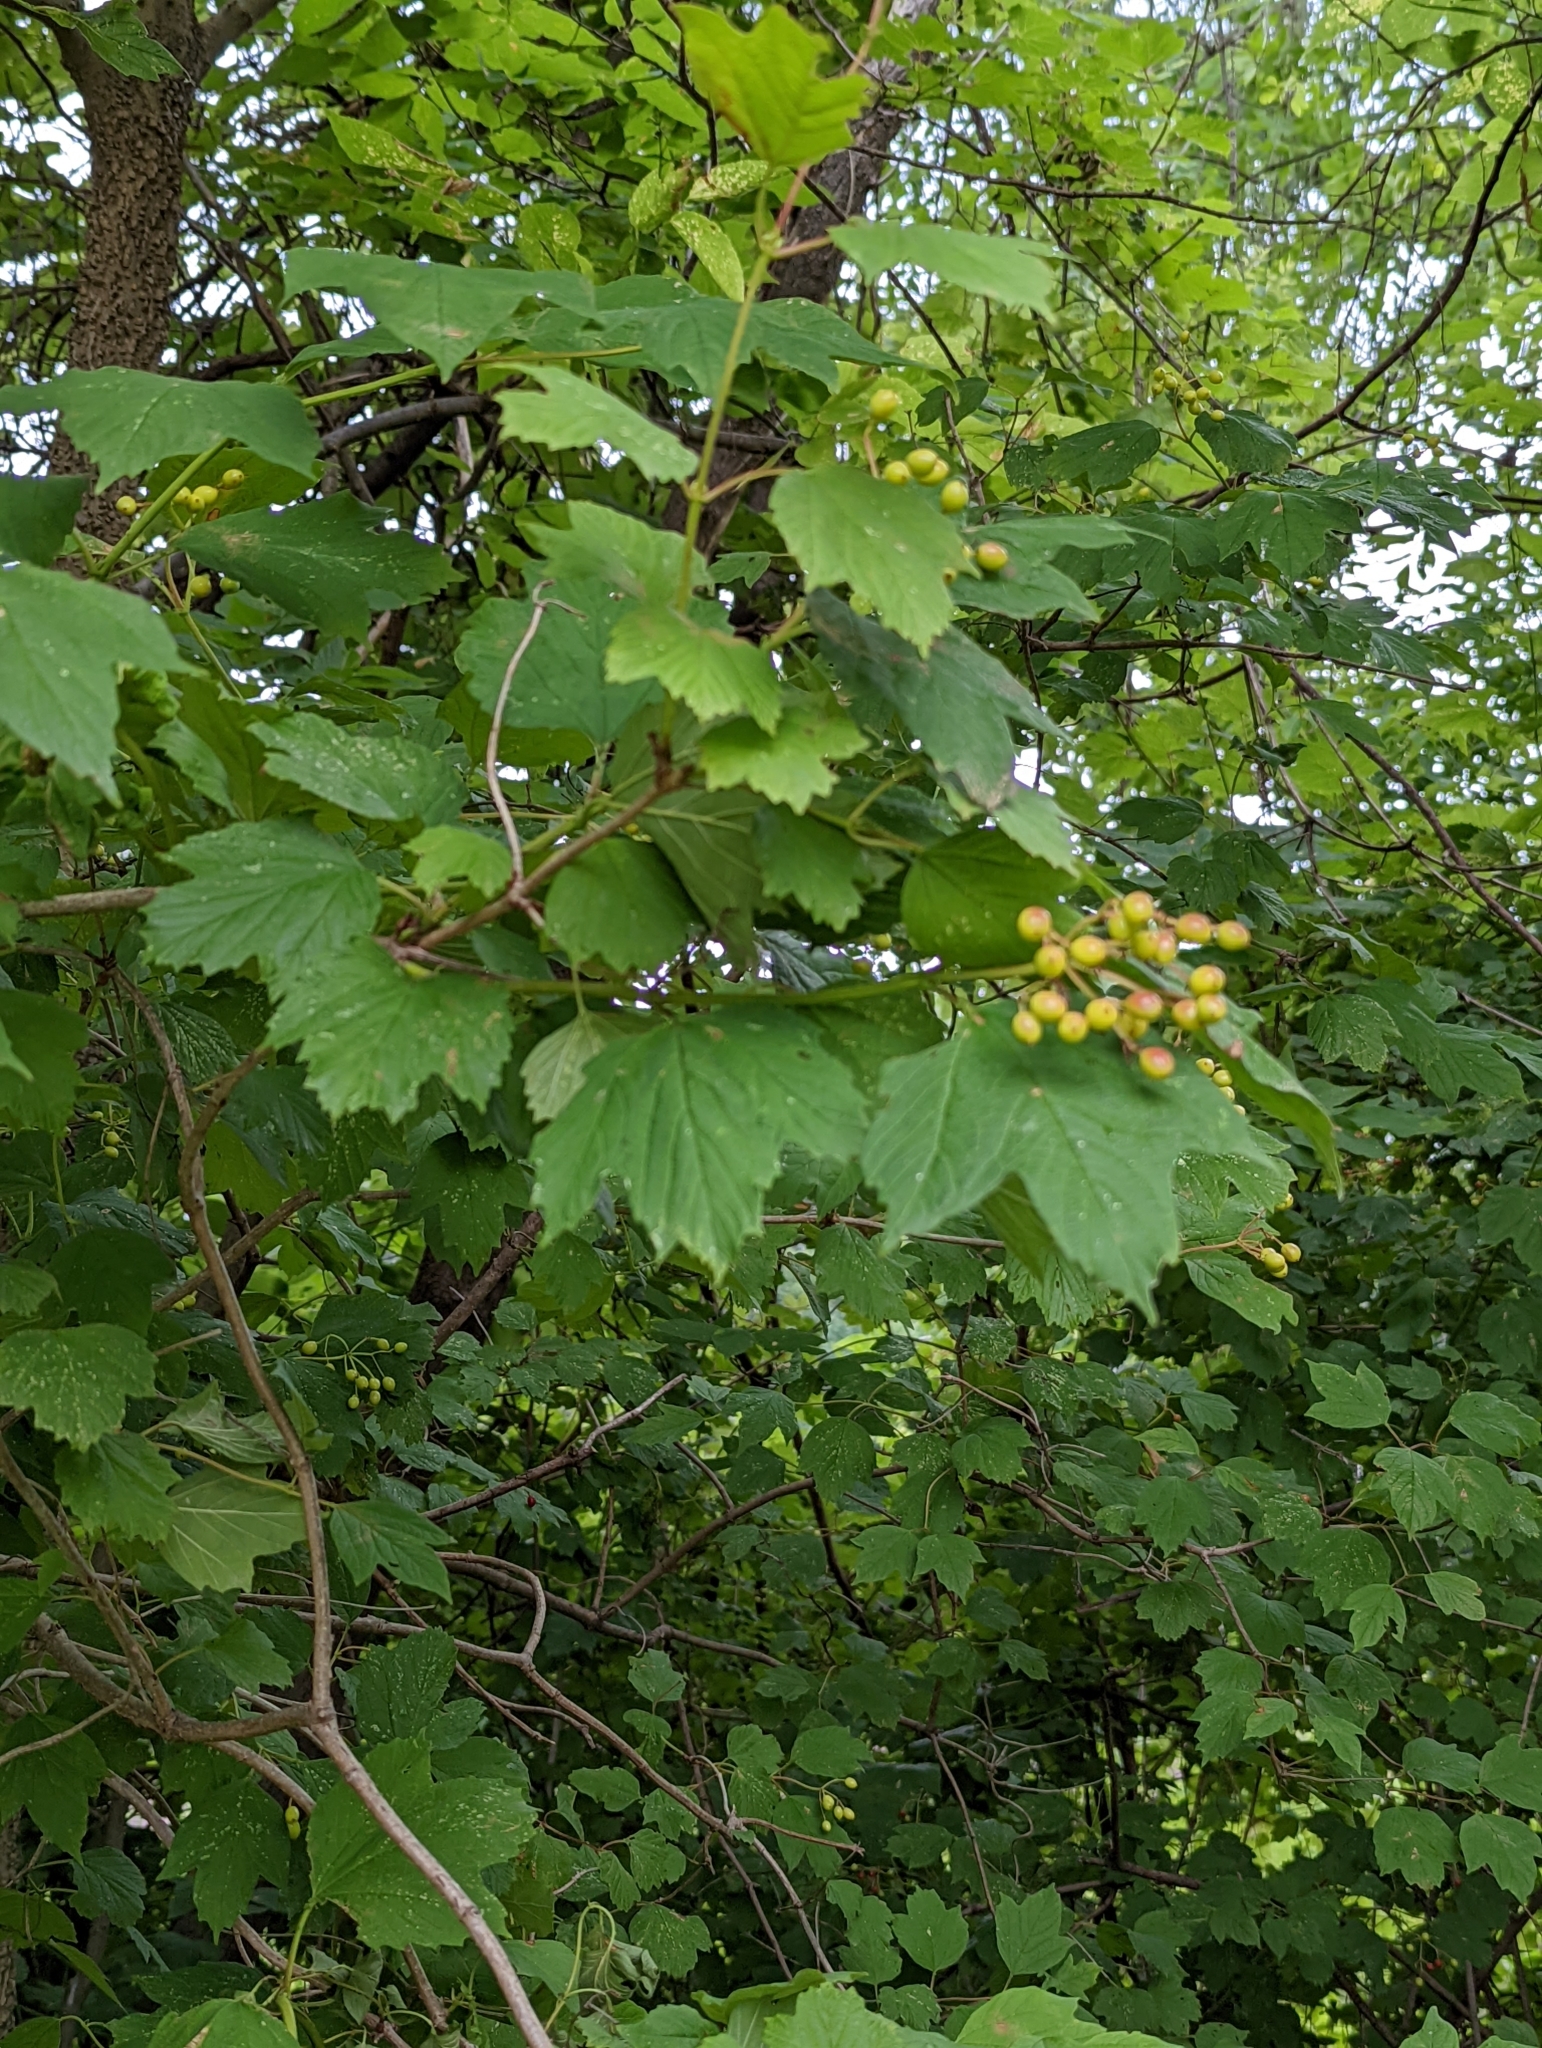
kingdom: Plantae
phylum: Tracheophyta
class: Magnoliopsida
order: Dipsacales
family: Viburnaceae
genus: Viburnum
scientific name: Viburnum opulus
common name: Guelder-rose
